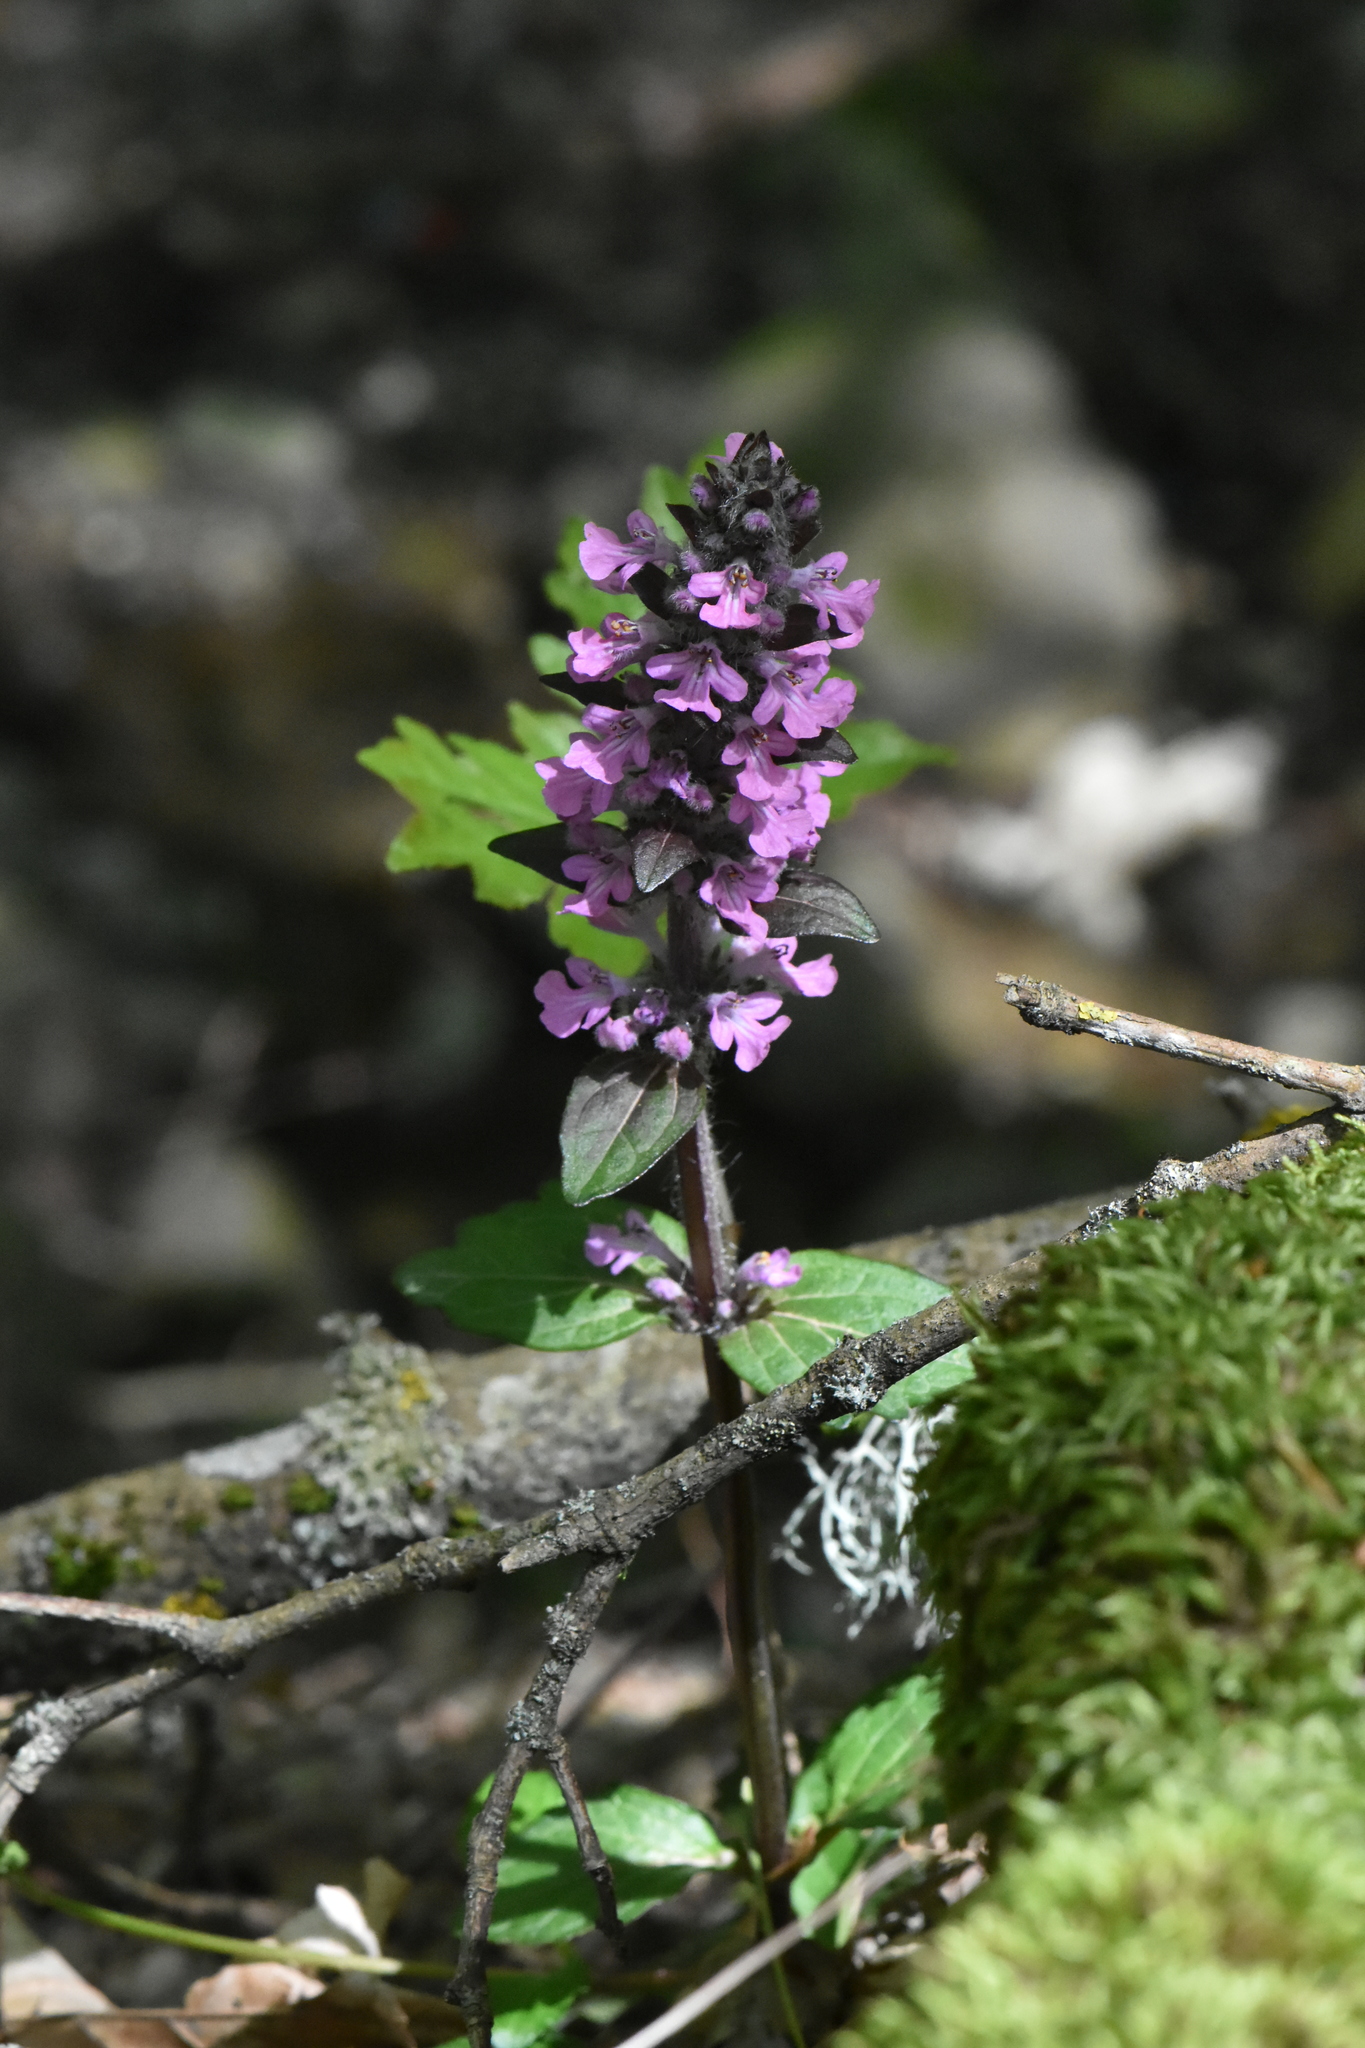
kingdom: Plantae
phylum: Tracheophyta
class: Magnoliopsida
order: Lamiales
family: Lamiaceae
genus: Ajuga
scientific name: Ajuga reptans
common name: Bugle
